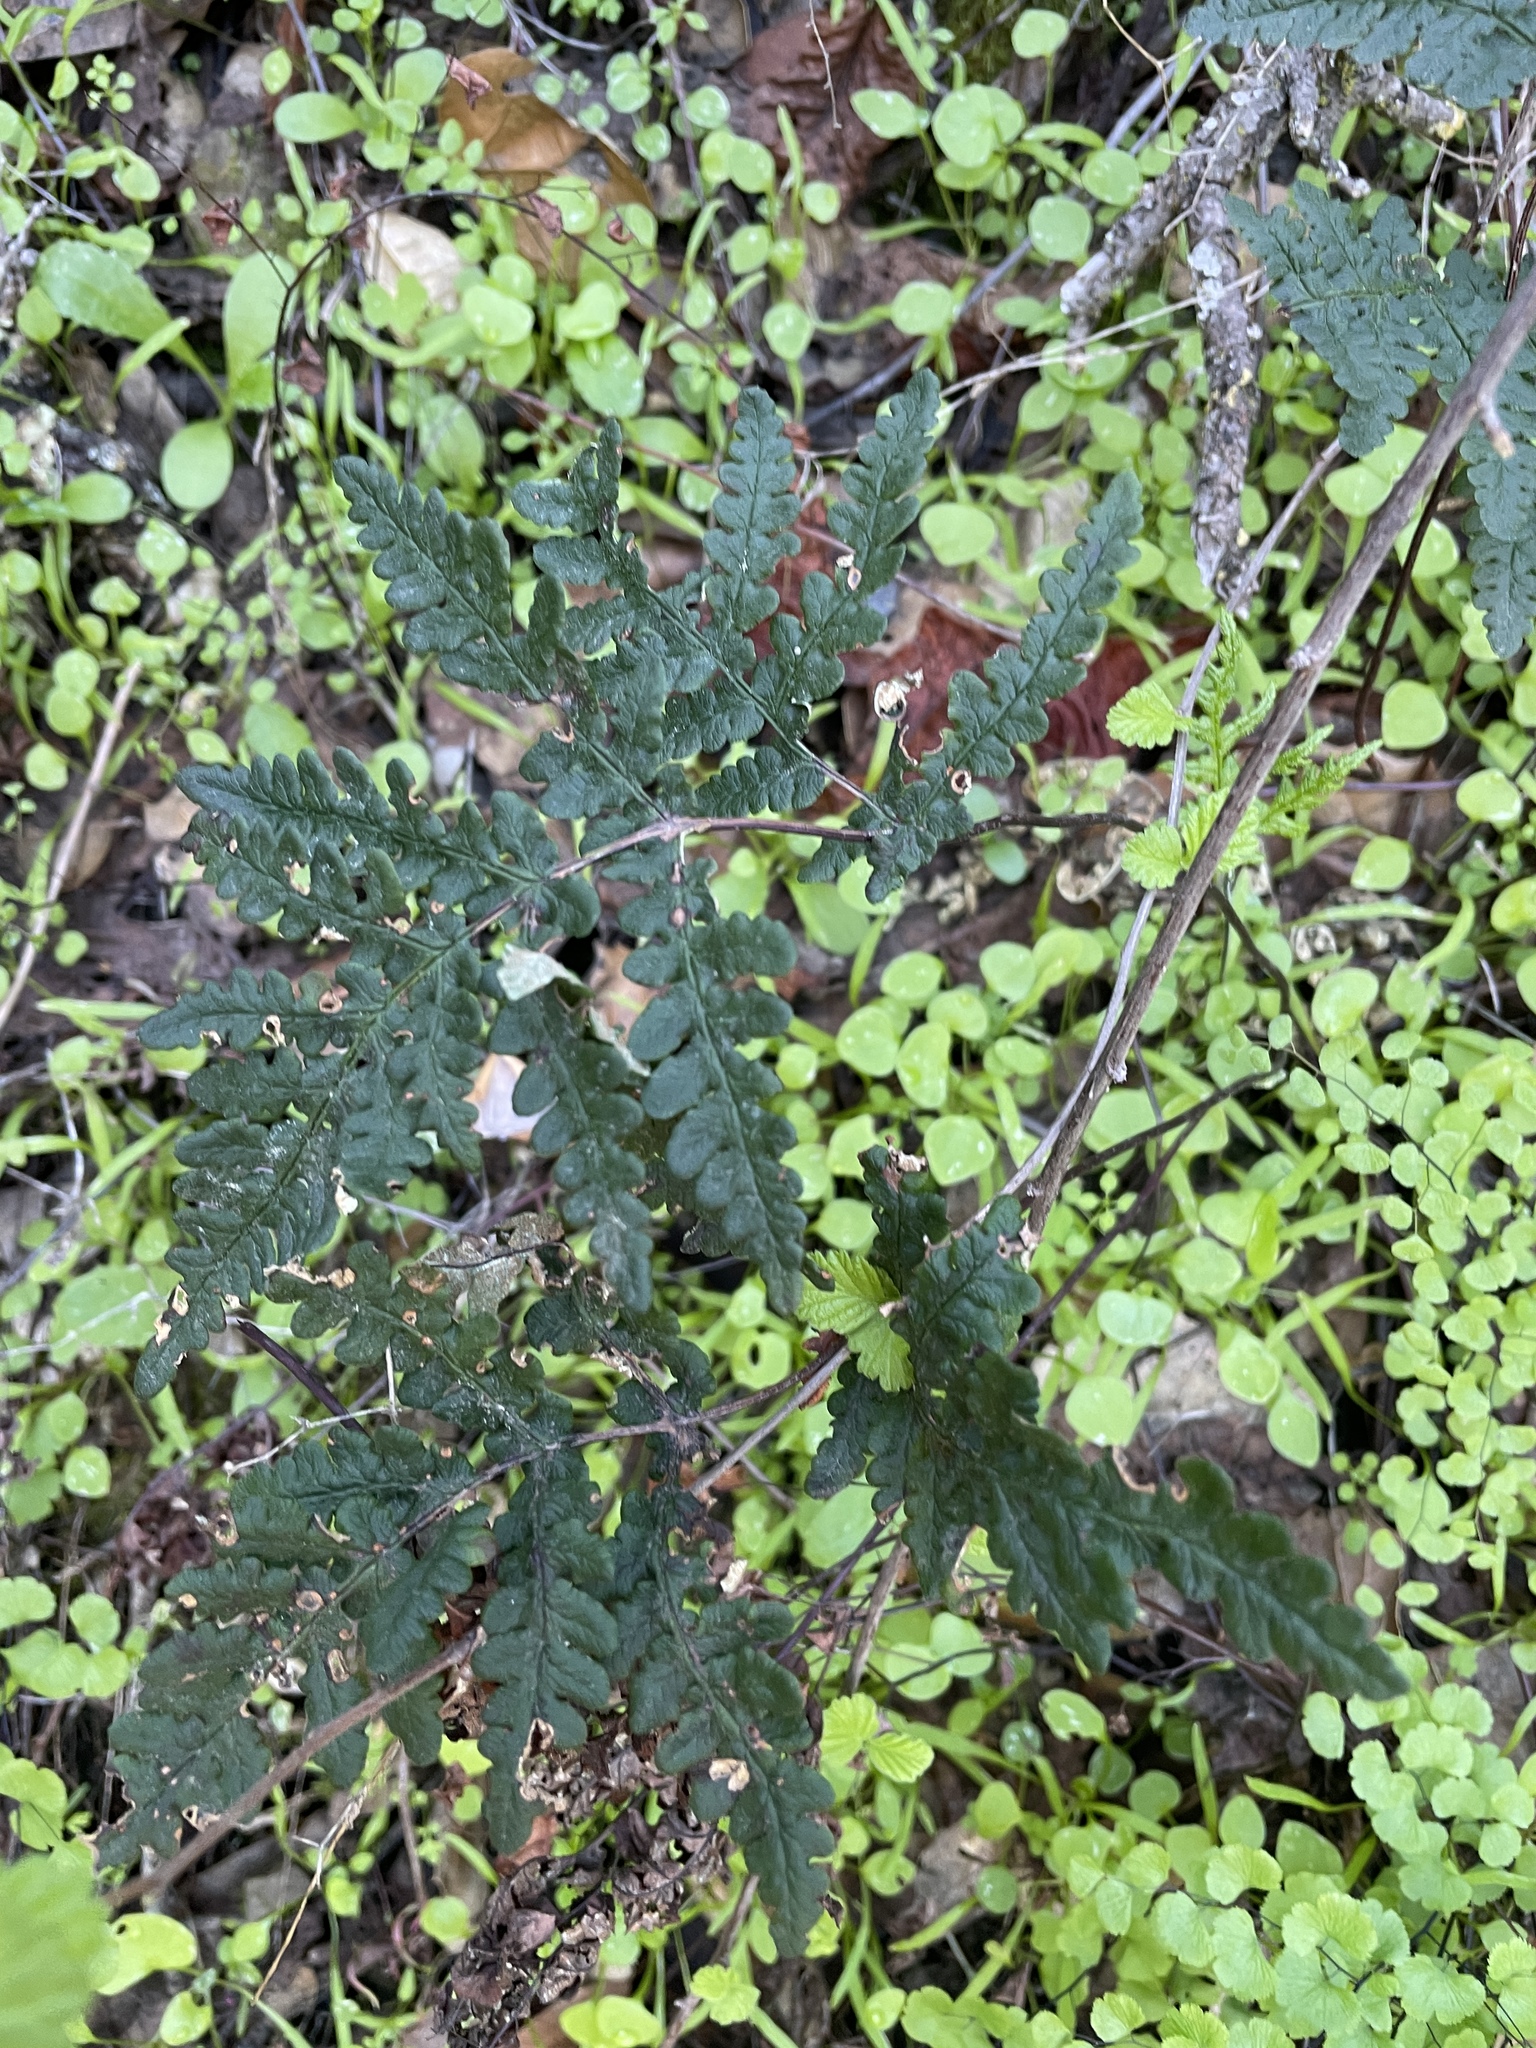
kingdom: Plantae
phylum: Tracheophyta
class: Polypodiopsida
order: Polypodiales
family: Pteridaceae
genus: Pentagramma
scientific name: Pentagramma triangularis
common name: Gold fern
